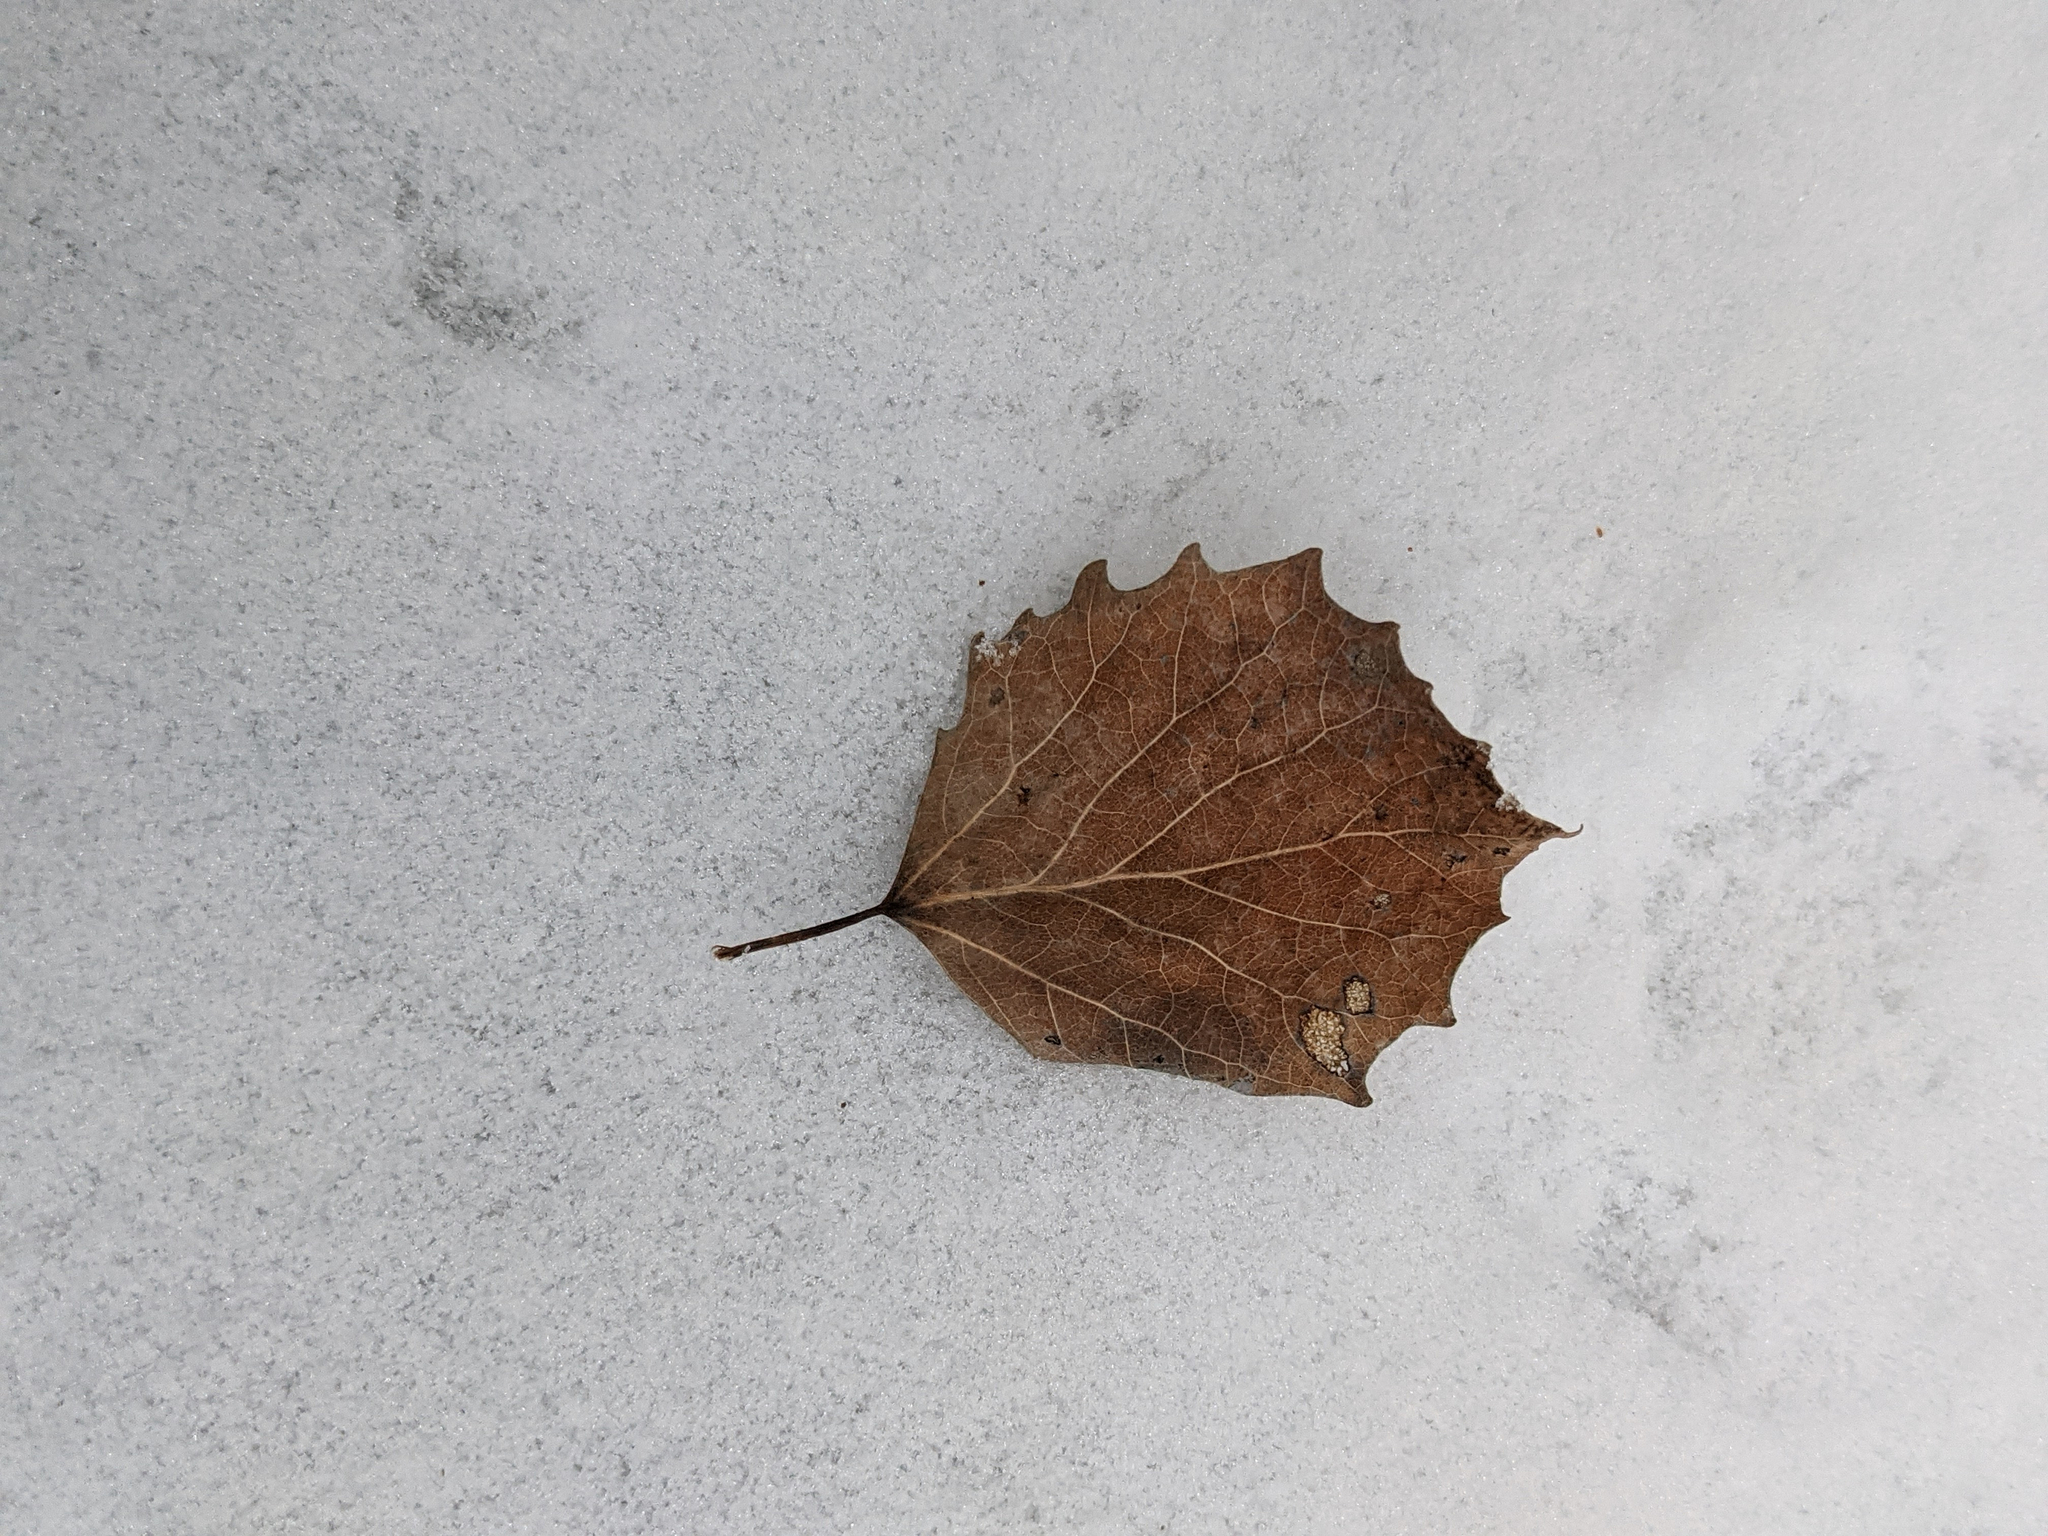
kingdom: Plantae
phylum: Tracheophyta
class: Magnoliopsida
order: Malpighiales
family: Salicaceae
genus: Populus
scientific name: Populus grandidentata
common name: Bigtooth aspen
